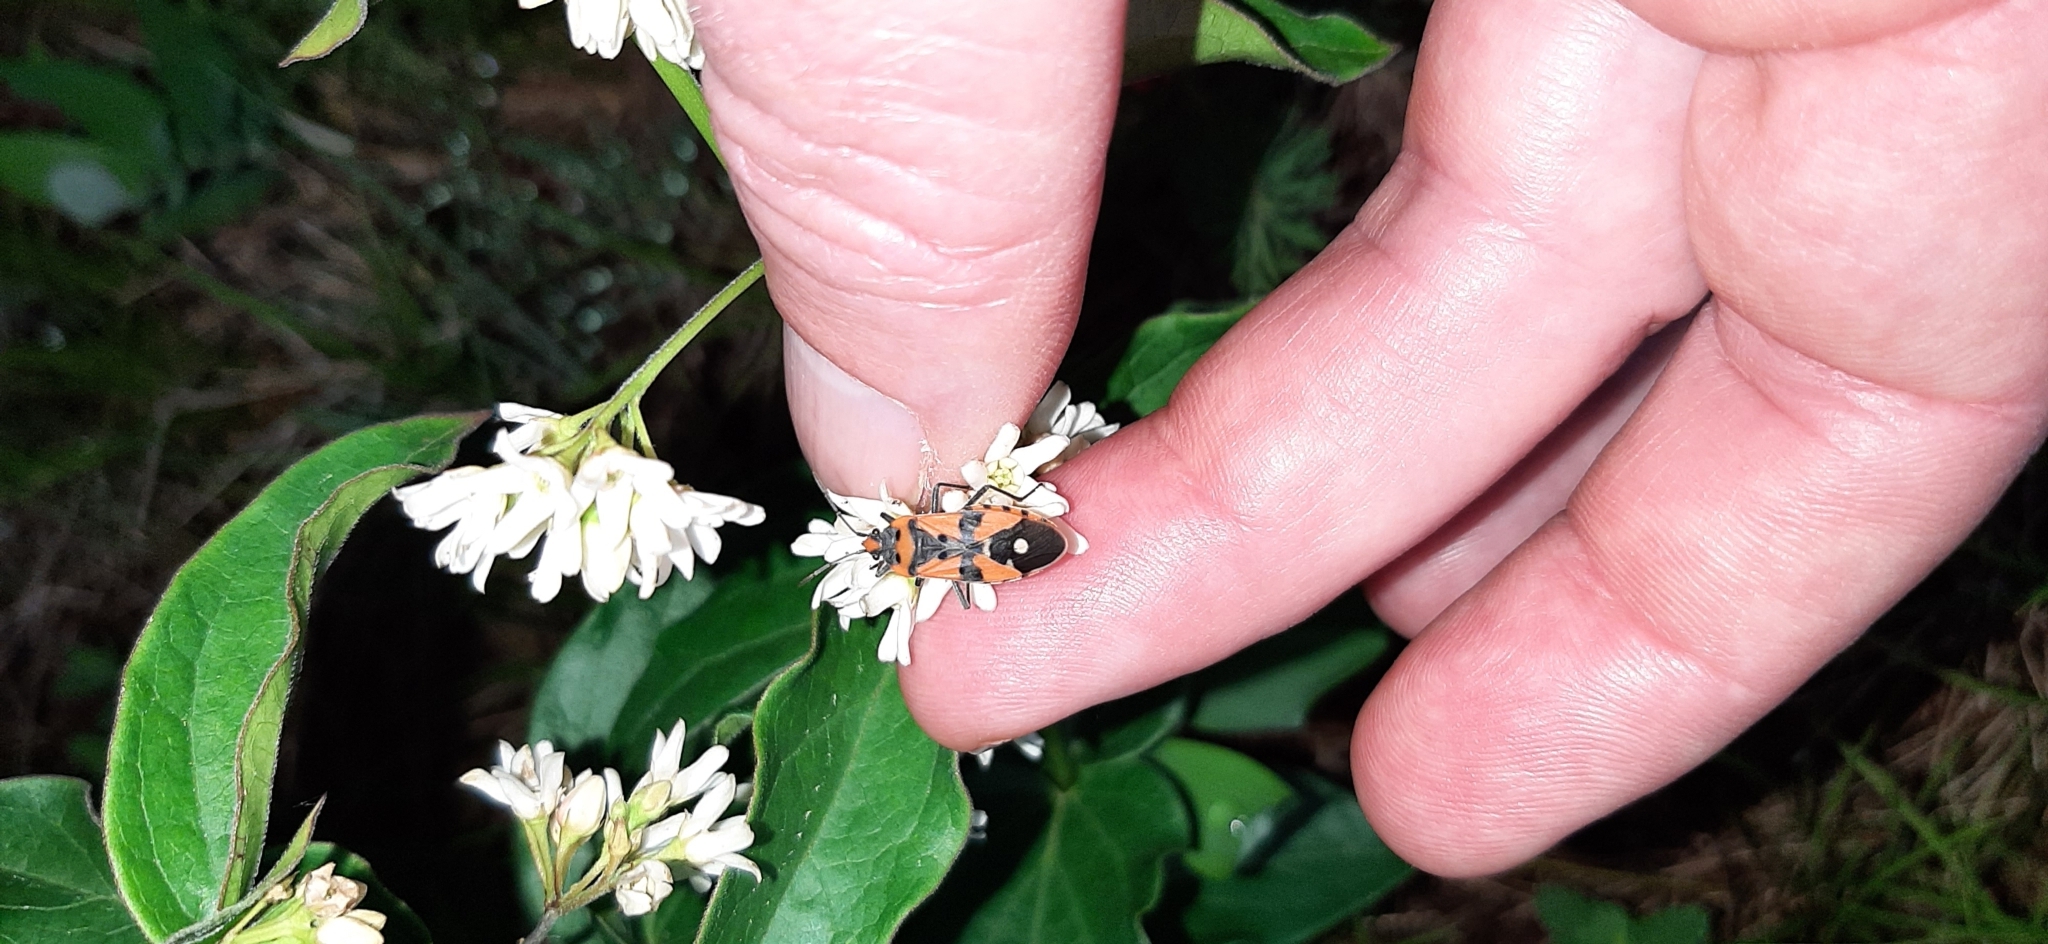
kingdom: Animalia
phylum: Arthropoda
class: Insecta
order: Hemiptera
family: Lygaeidae
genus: Lygaeus
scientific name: Lygaeus equestris
